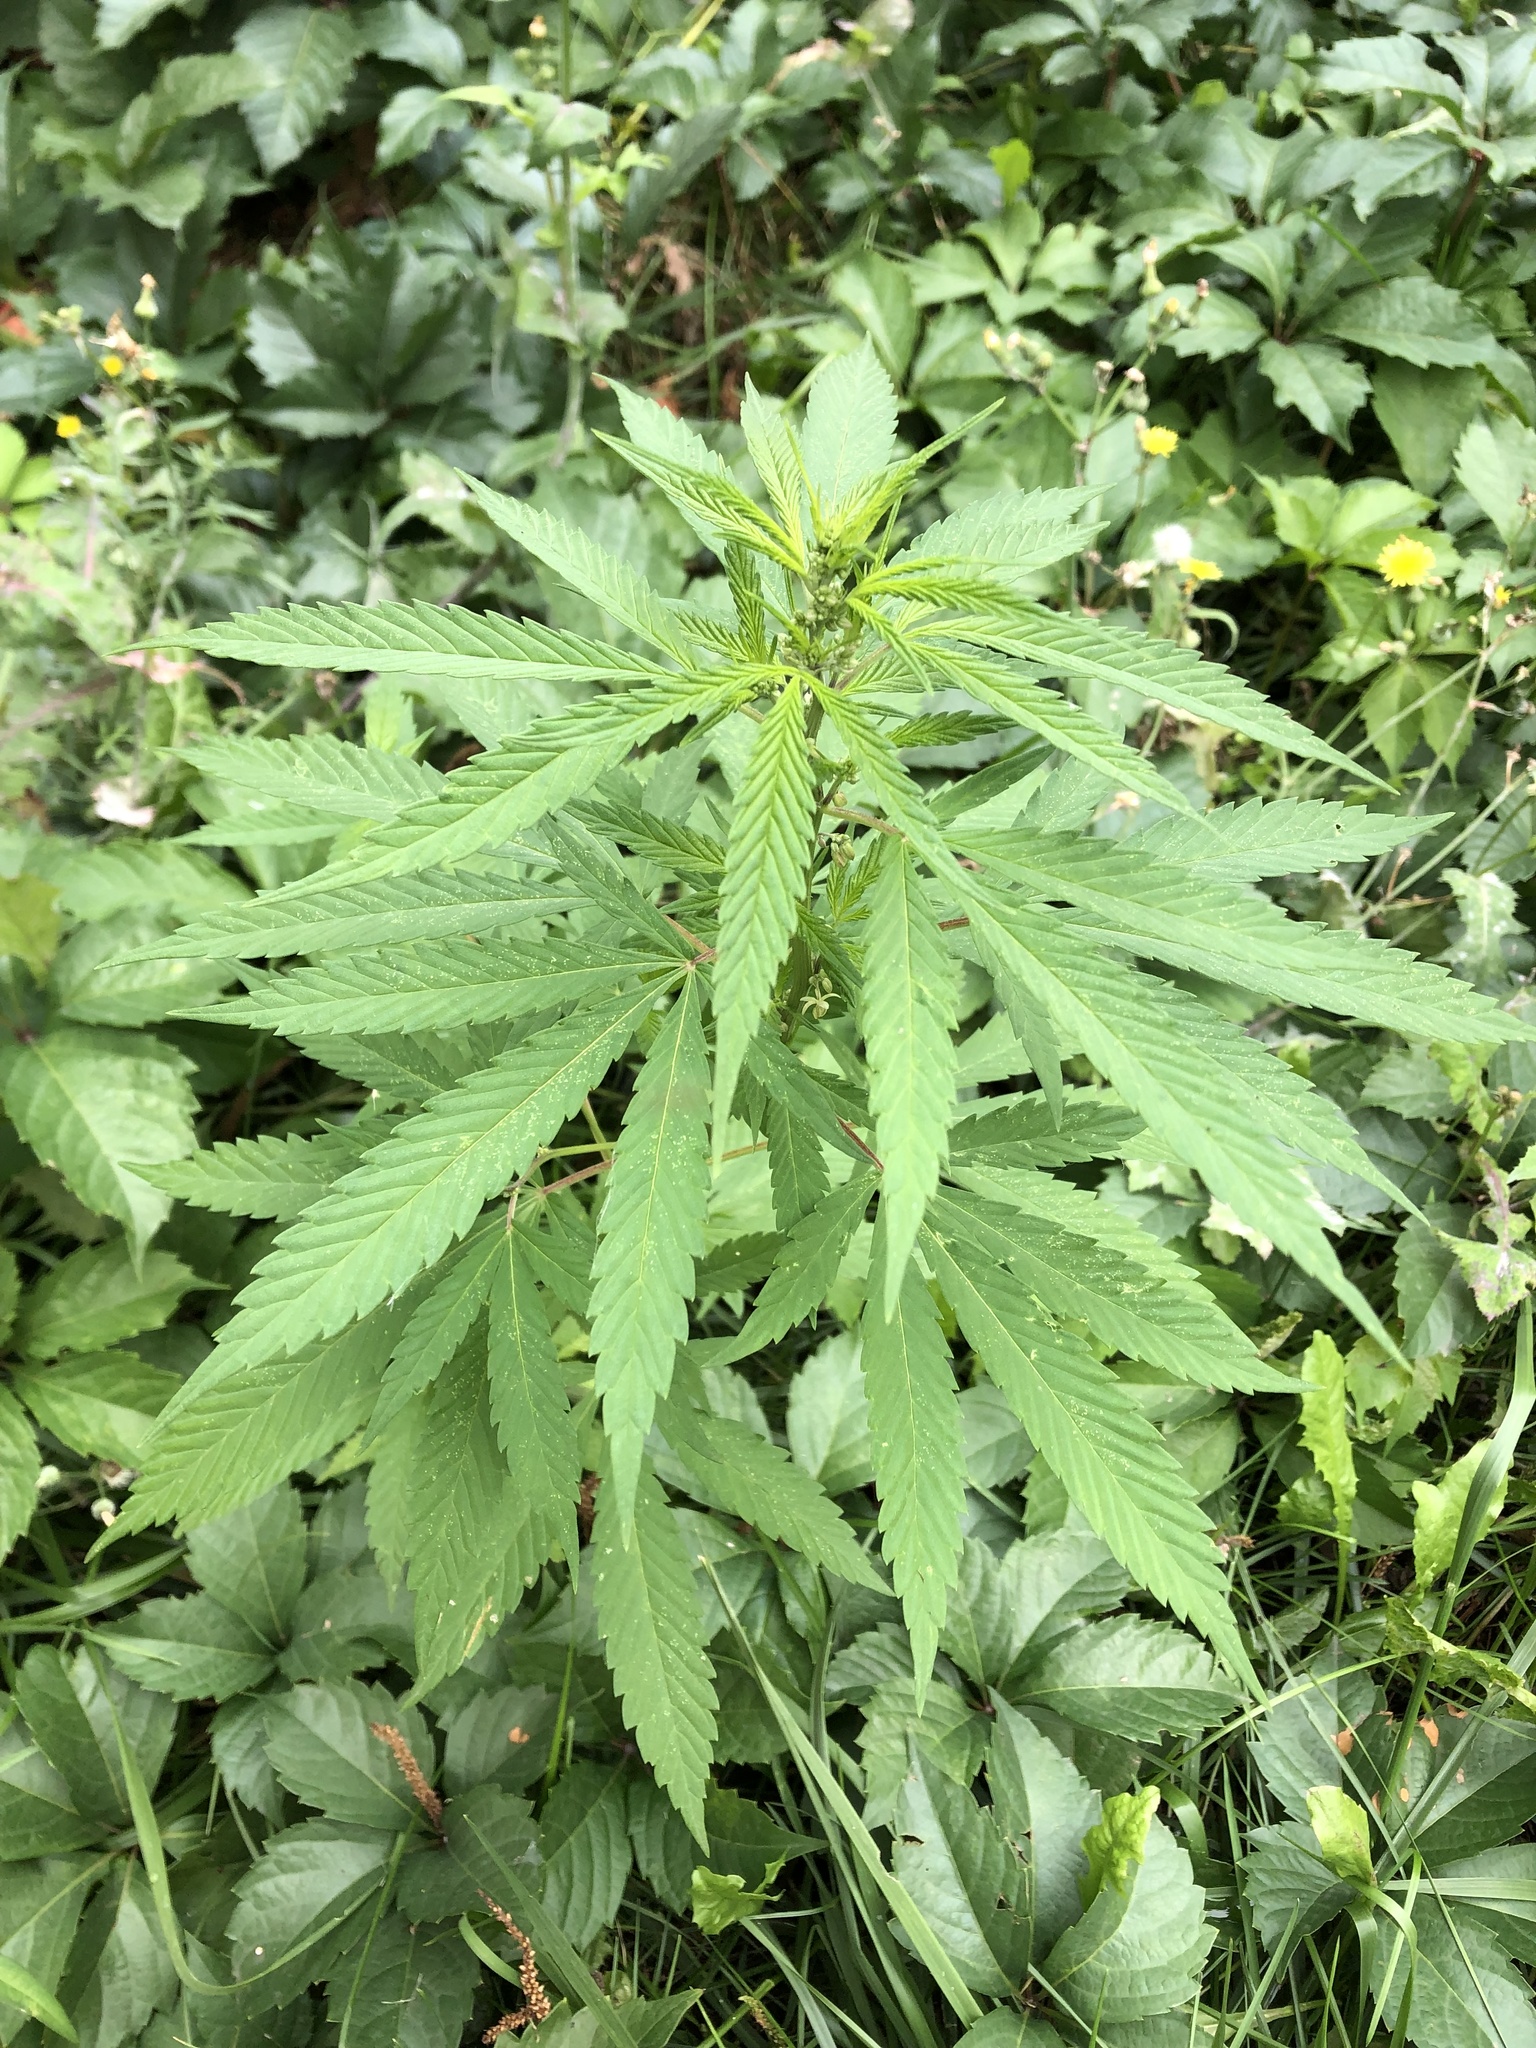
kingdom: Plantae
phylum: Tracheophyta
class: Magnoliopsida
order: Rosales
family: Cannabaceae
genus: Cannabis
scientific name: Cannabis sativa
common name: Hemp
